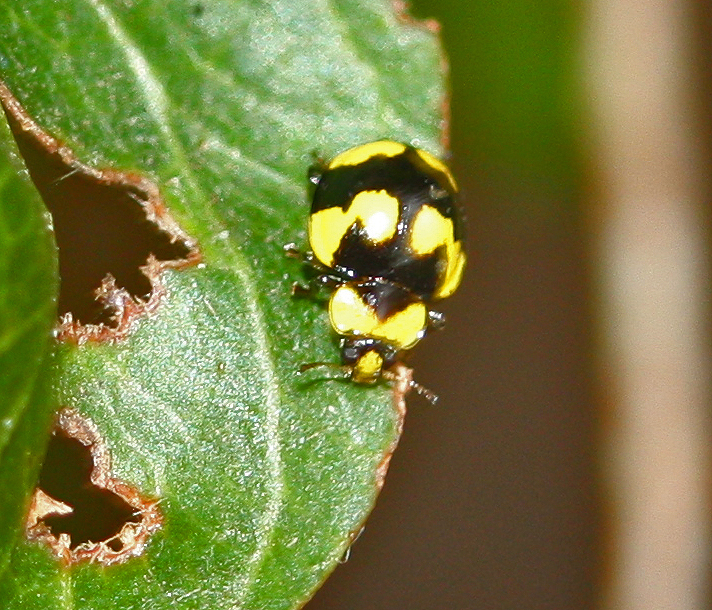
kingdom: Animalia
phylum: Arthropoda
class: Insecta
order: Coleoptera
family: Coccinellidae
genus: Illeis
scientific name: Illeis galbula
